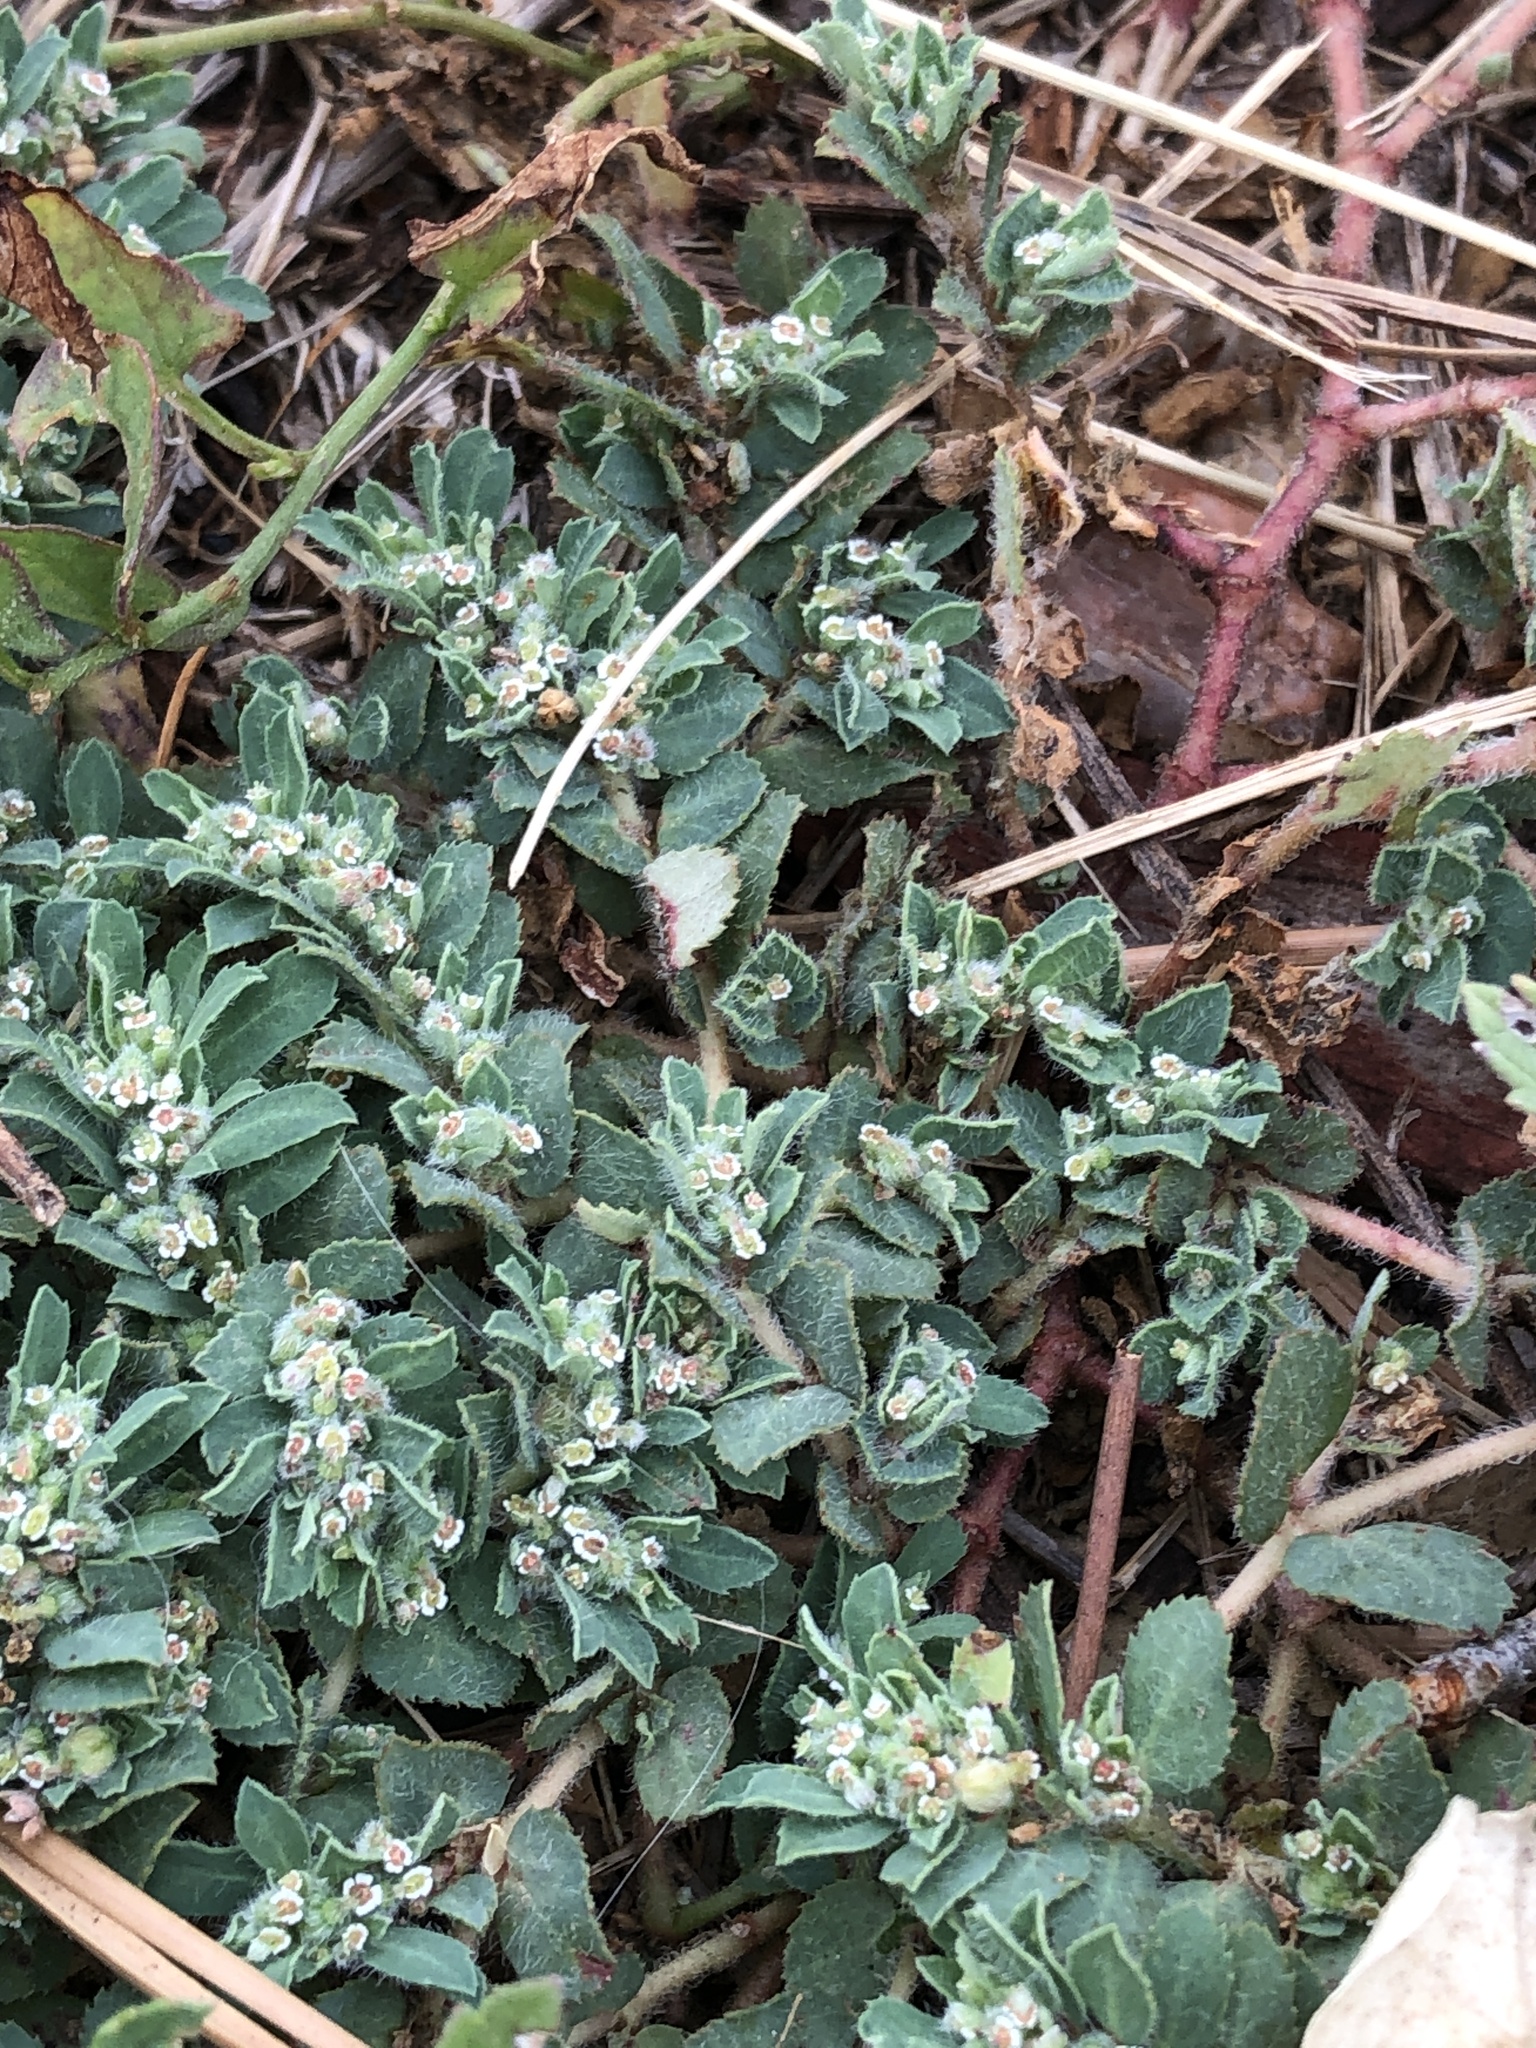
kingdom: Plantae
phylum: Tracheophyta
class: Magnoliopsida
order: Malpighiales
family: Euphorbiaceae
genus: Euphorbia
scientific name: Euphorbia stictospora
